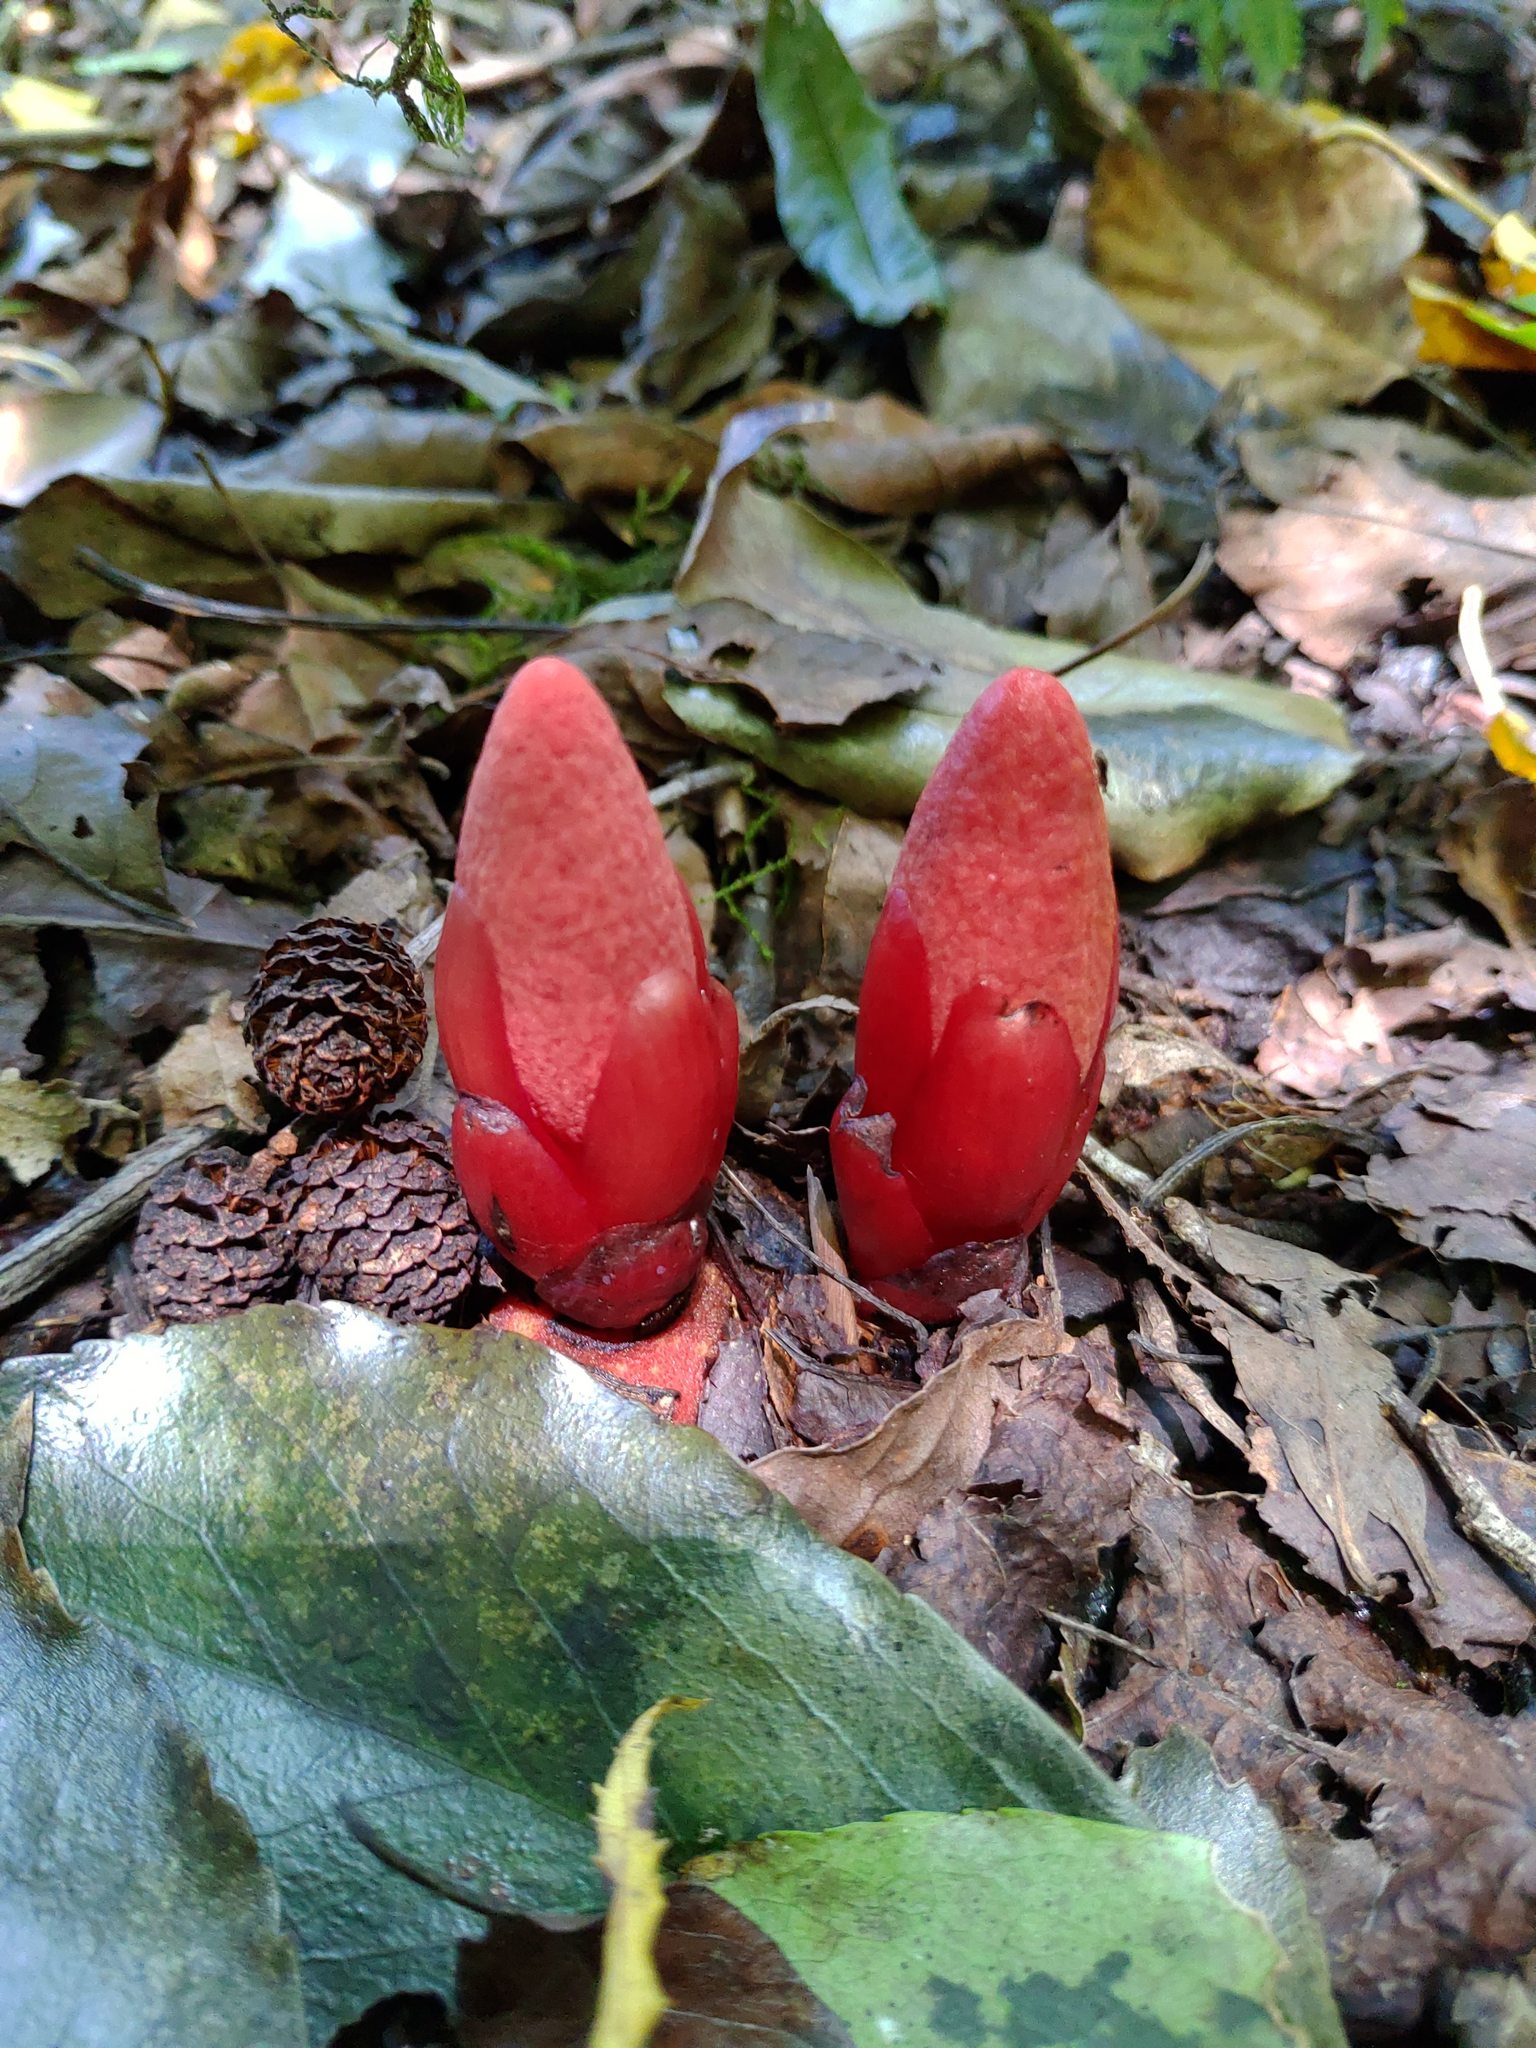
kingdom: Plantae
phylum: Tracheophyta
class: Magnoliopsida
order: Santalales
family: Balanophoraceae
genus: Balanophora
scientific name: Balanophora laxiflora
